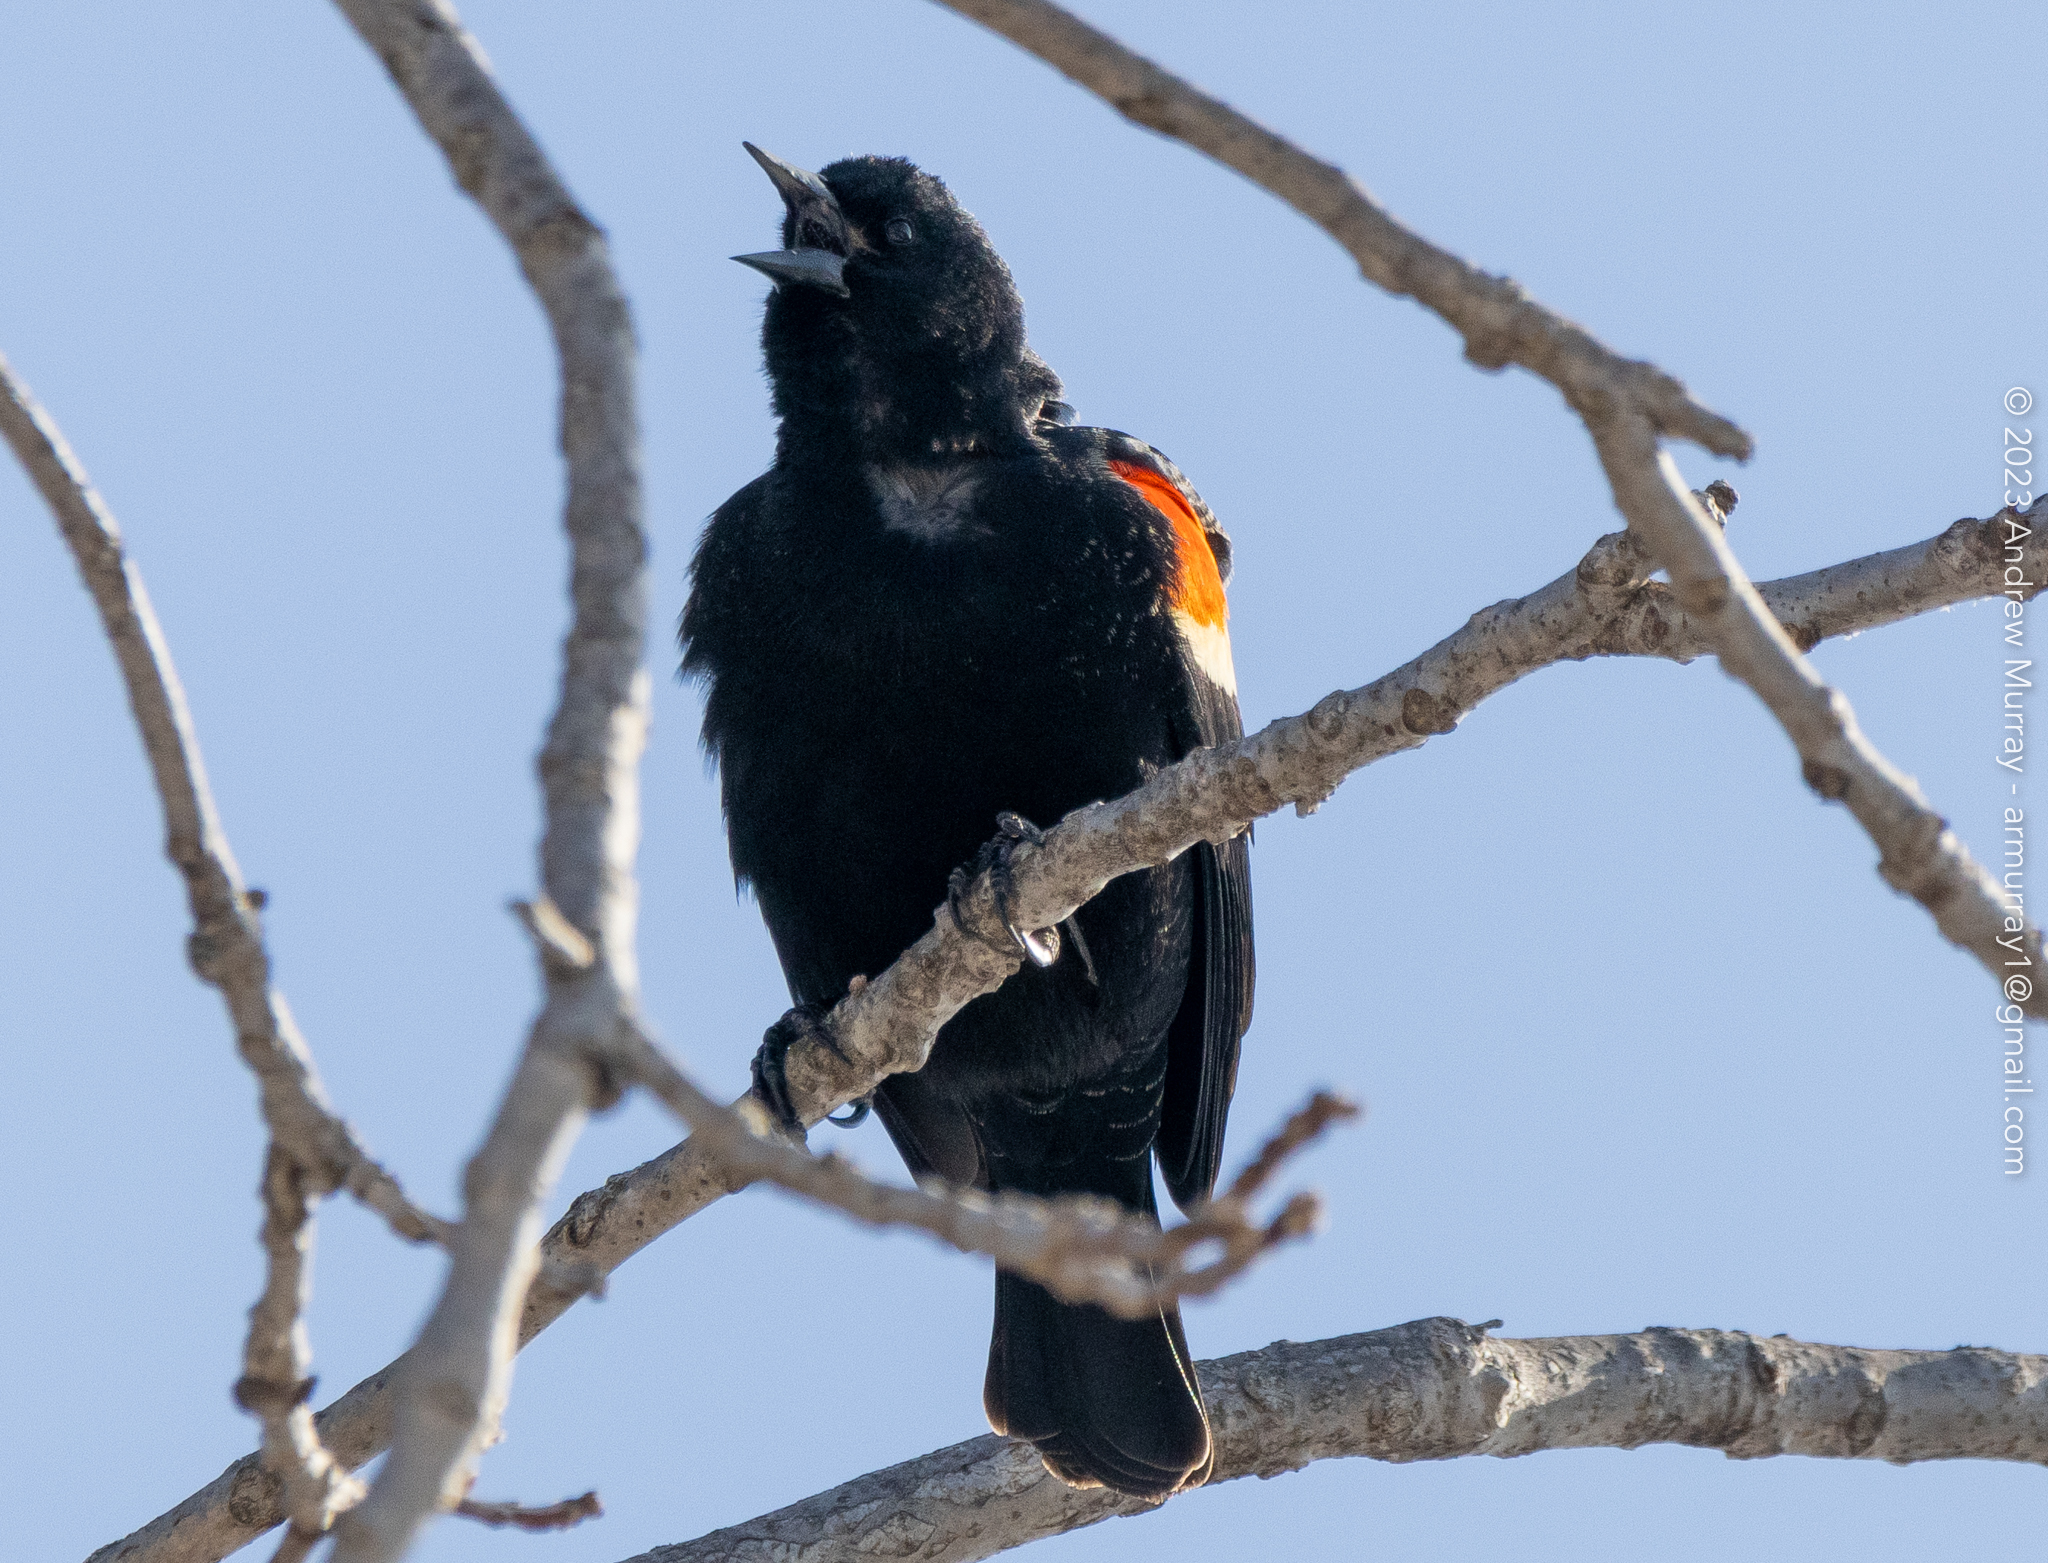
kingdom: Animalia
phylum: Chordata
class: Aves
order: Passeriformes
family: Icteridae
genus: Agelaius
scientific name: Agelaius phoeniceus
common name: Red-winged blackbird
